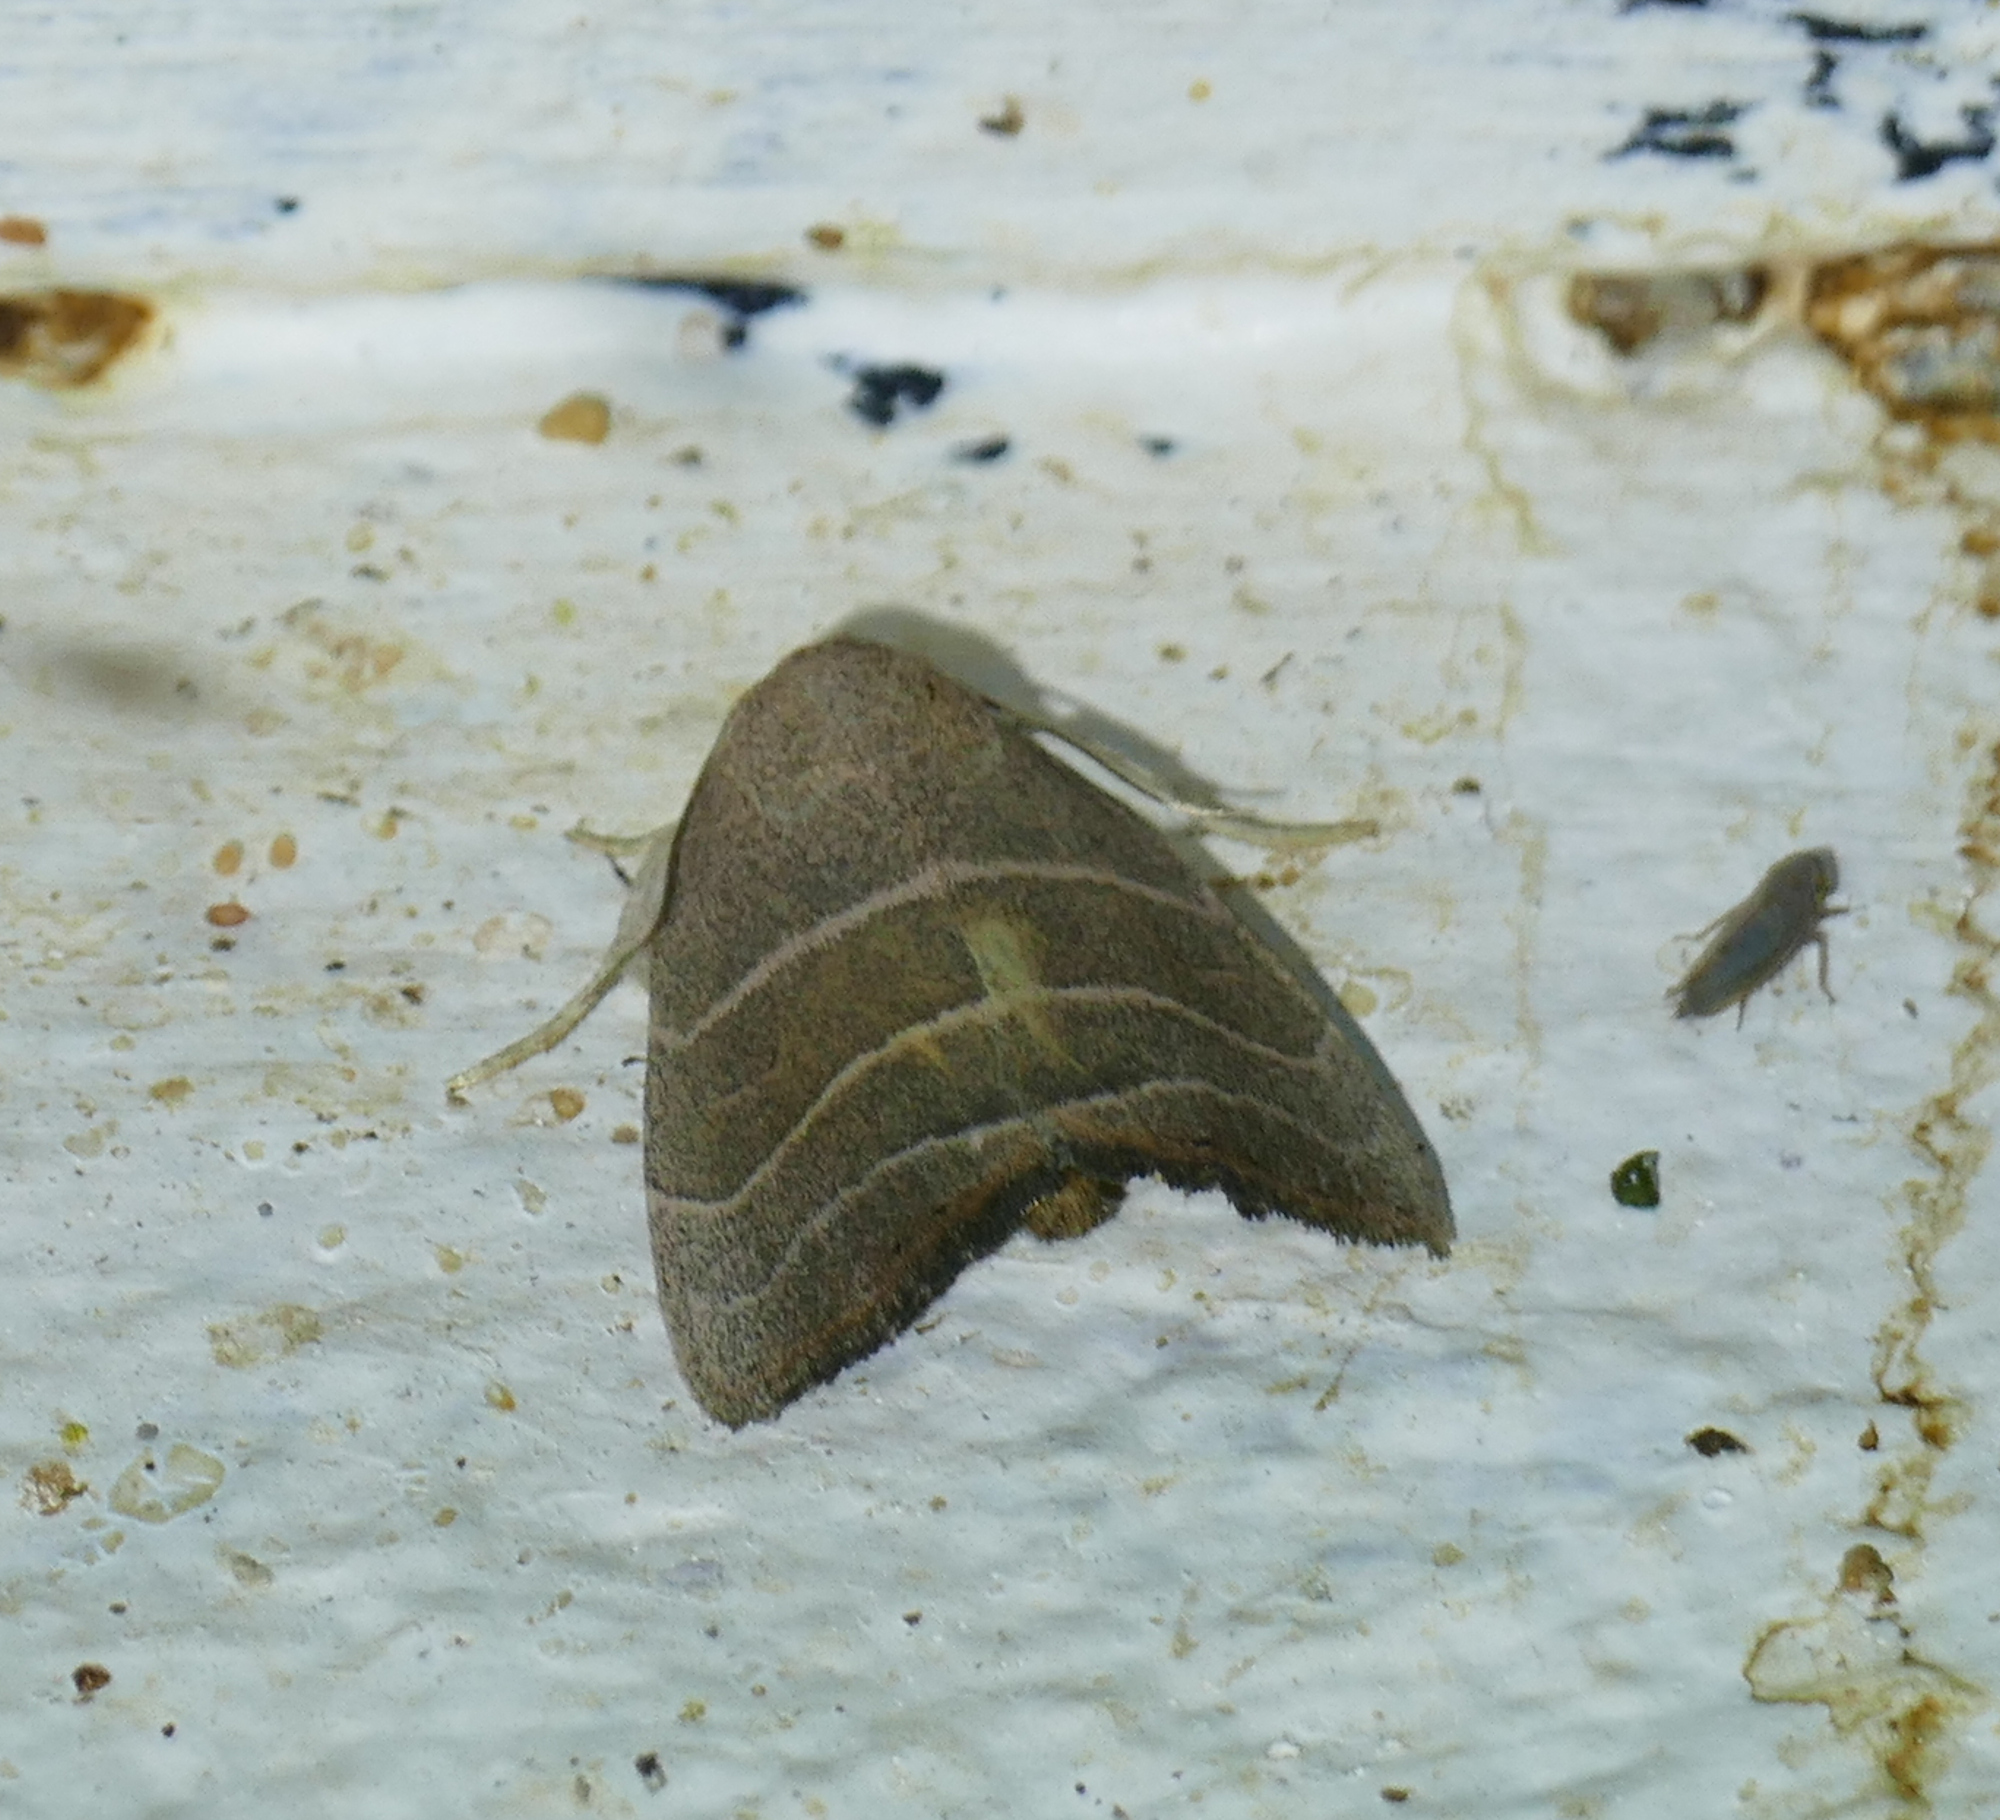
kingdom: Animalia
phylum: Arthropoda
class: Insecta
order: Lepidoptera
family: Noctuidae
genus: Bagisara
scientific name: Bagisara rectifascia
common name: Straight lined mallow moth
